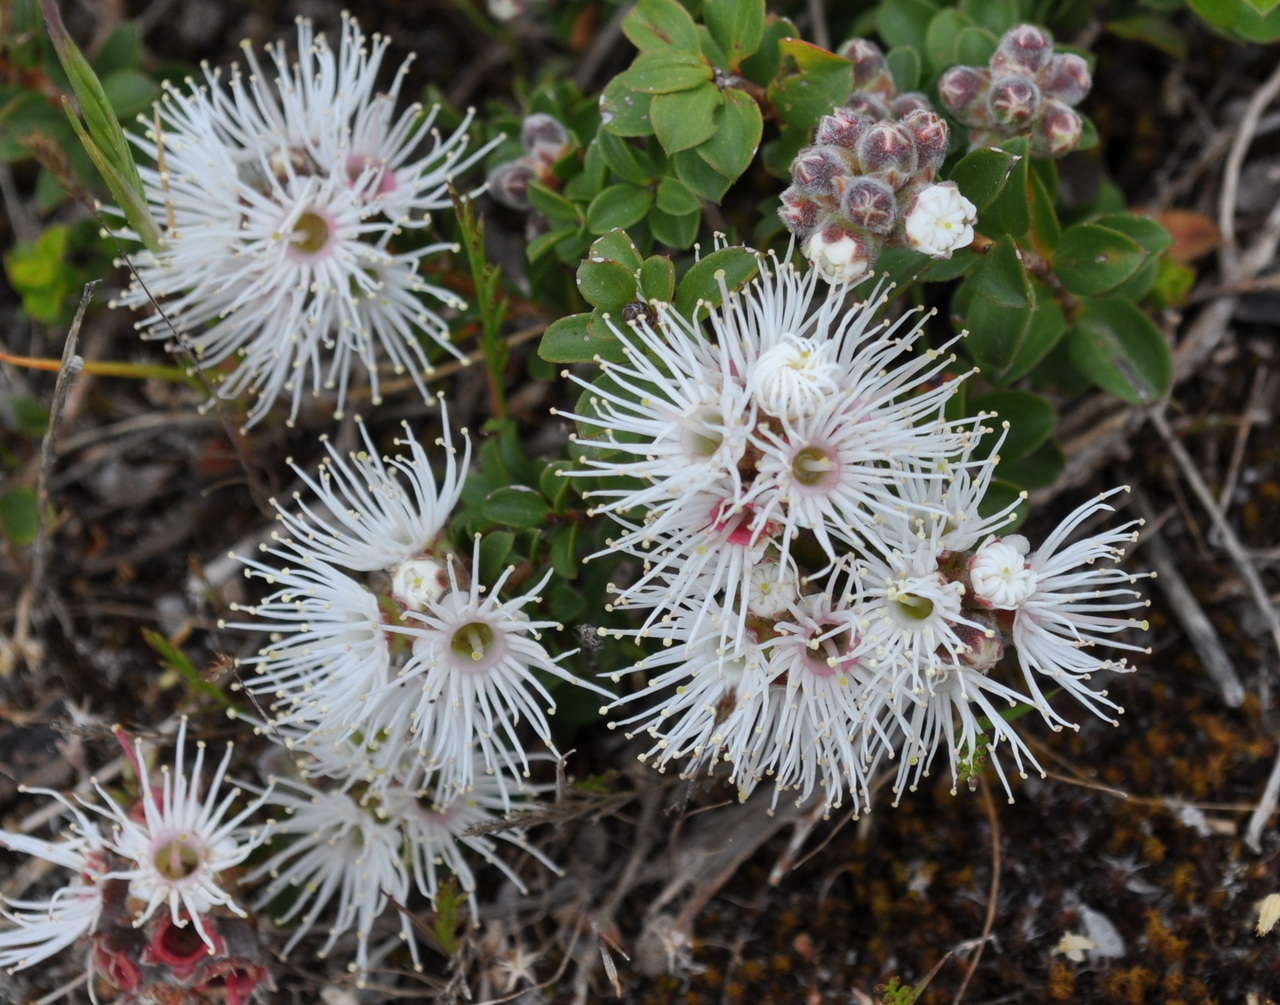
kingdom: Plantae
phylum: Tracheophyta
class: Magnoliopsida
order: Myrtales
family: Myrtaceae
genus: Kunzea
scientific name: Kunzea pomifera
